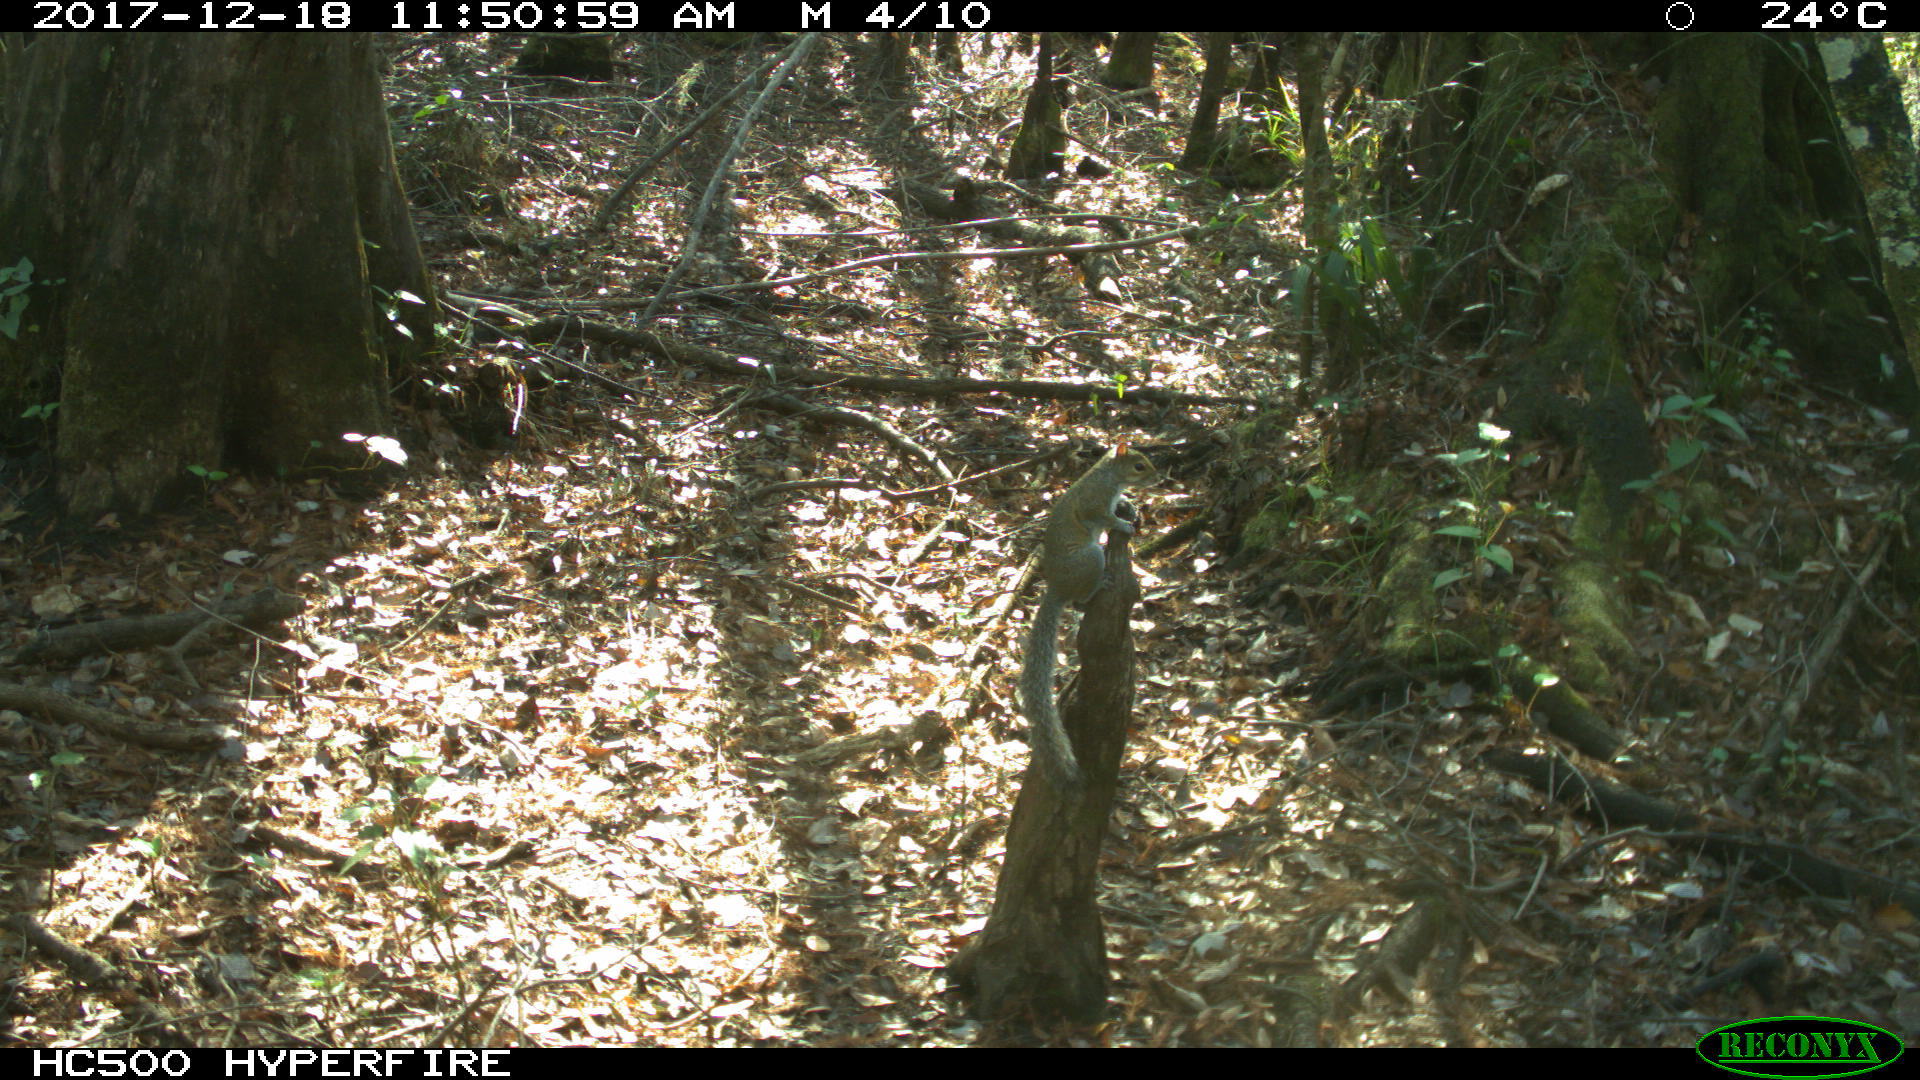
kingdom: Animalia
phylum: Chordata
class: Mammalia
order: Rodentia
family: Sciuridae
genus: Sciurus
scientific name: Sciurus carolinensis
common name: Eastern gray squirrel
